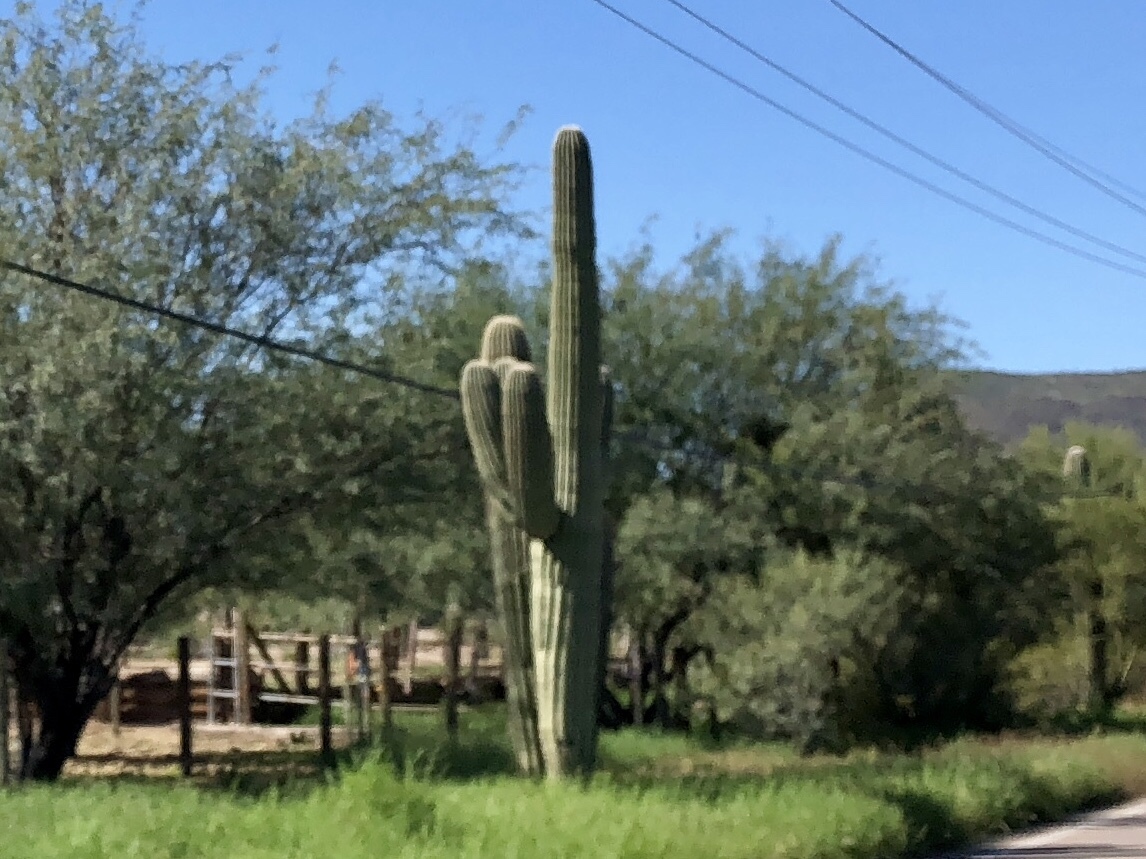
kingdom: Plantae
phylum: Tracheophyta
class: Magnoliopsida
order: Caryophyllales
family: Cactaceae
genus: Carnegiea
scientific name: Carnegiea gigantea
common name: Saguaro
